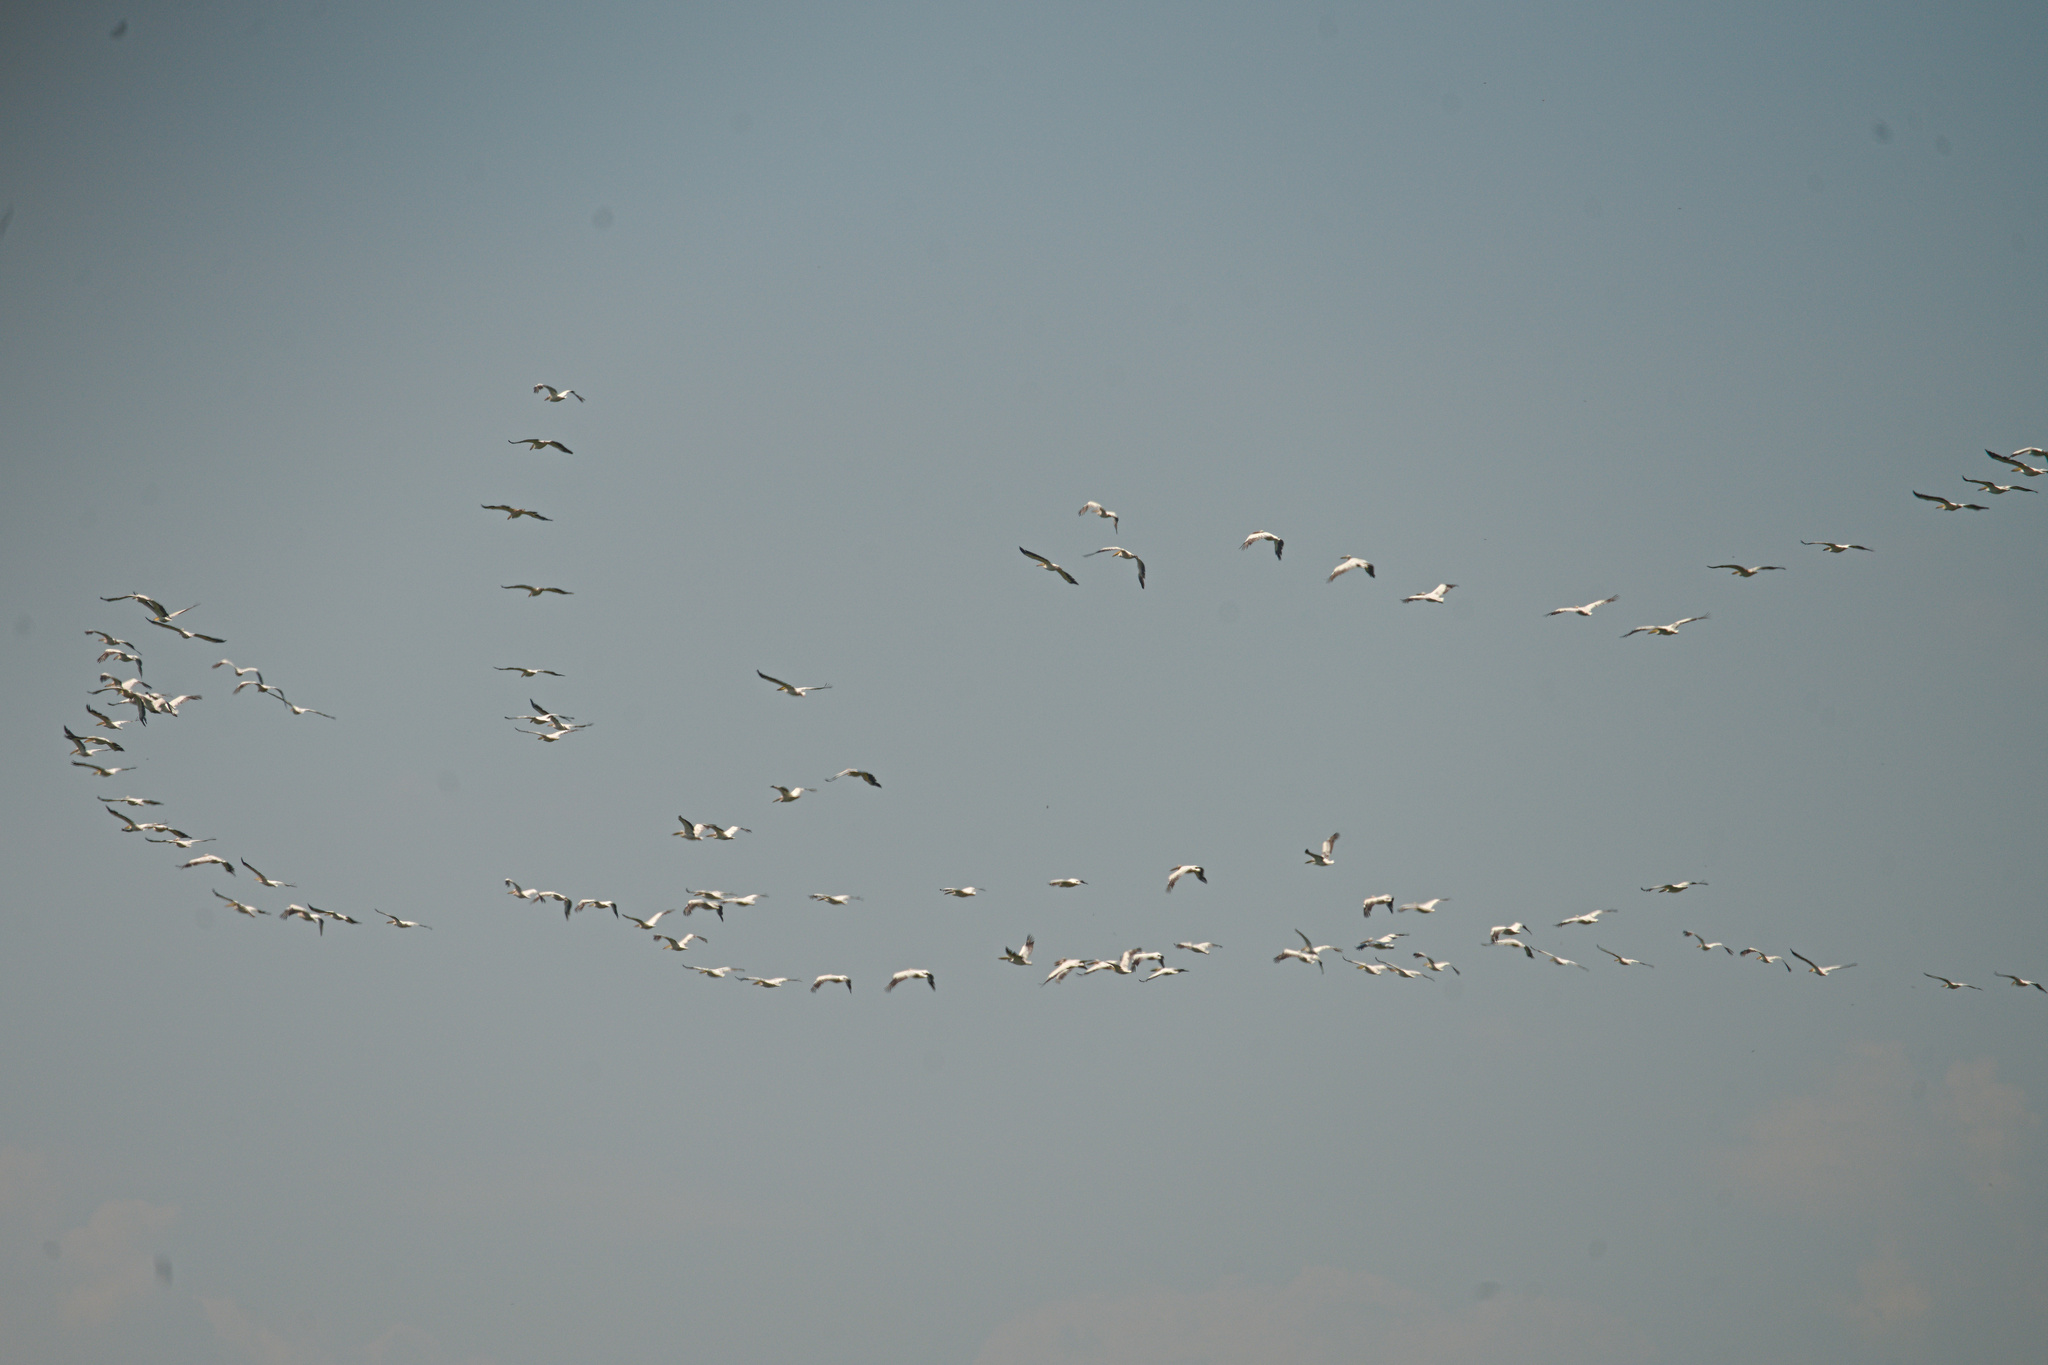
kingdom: Animalia
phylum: Chordata
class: Aves
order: Pelecaniformes
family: Pelecanidae
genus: Pelecanus
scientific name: Pelecanus onocrotalus
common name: Great white pelican
